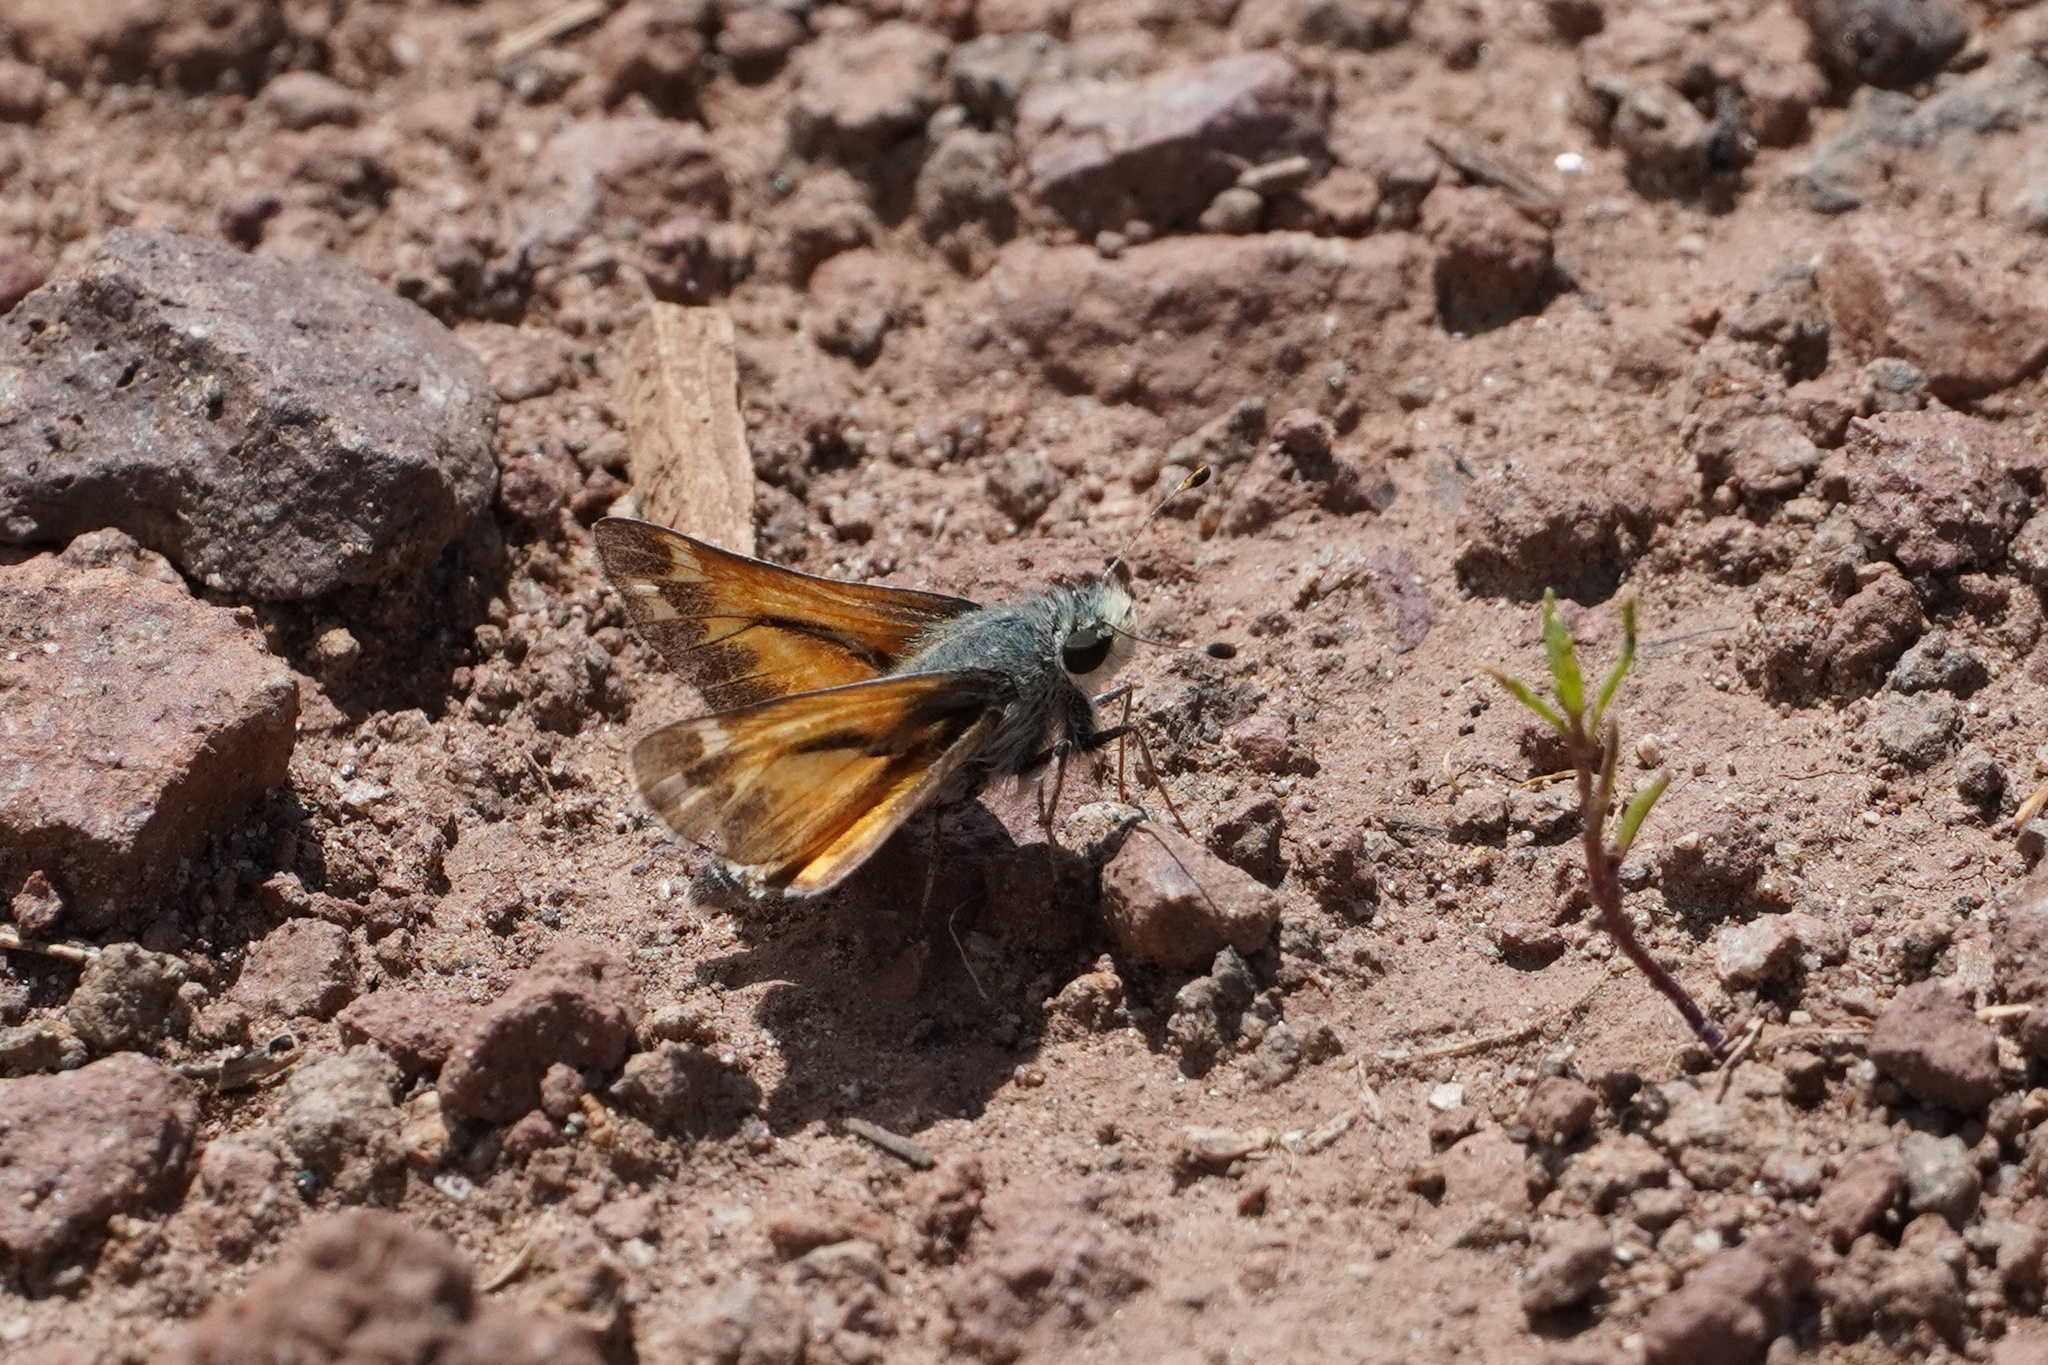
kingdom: Animalia
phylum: Arthropoda
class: Insecta
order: Lepidoptera
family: Hesperiidae
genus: Hesperia
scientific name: Hesperia juba
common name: Juba skipper
